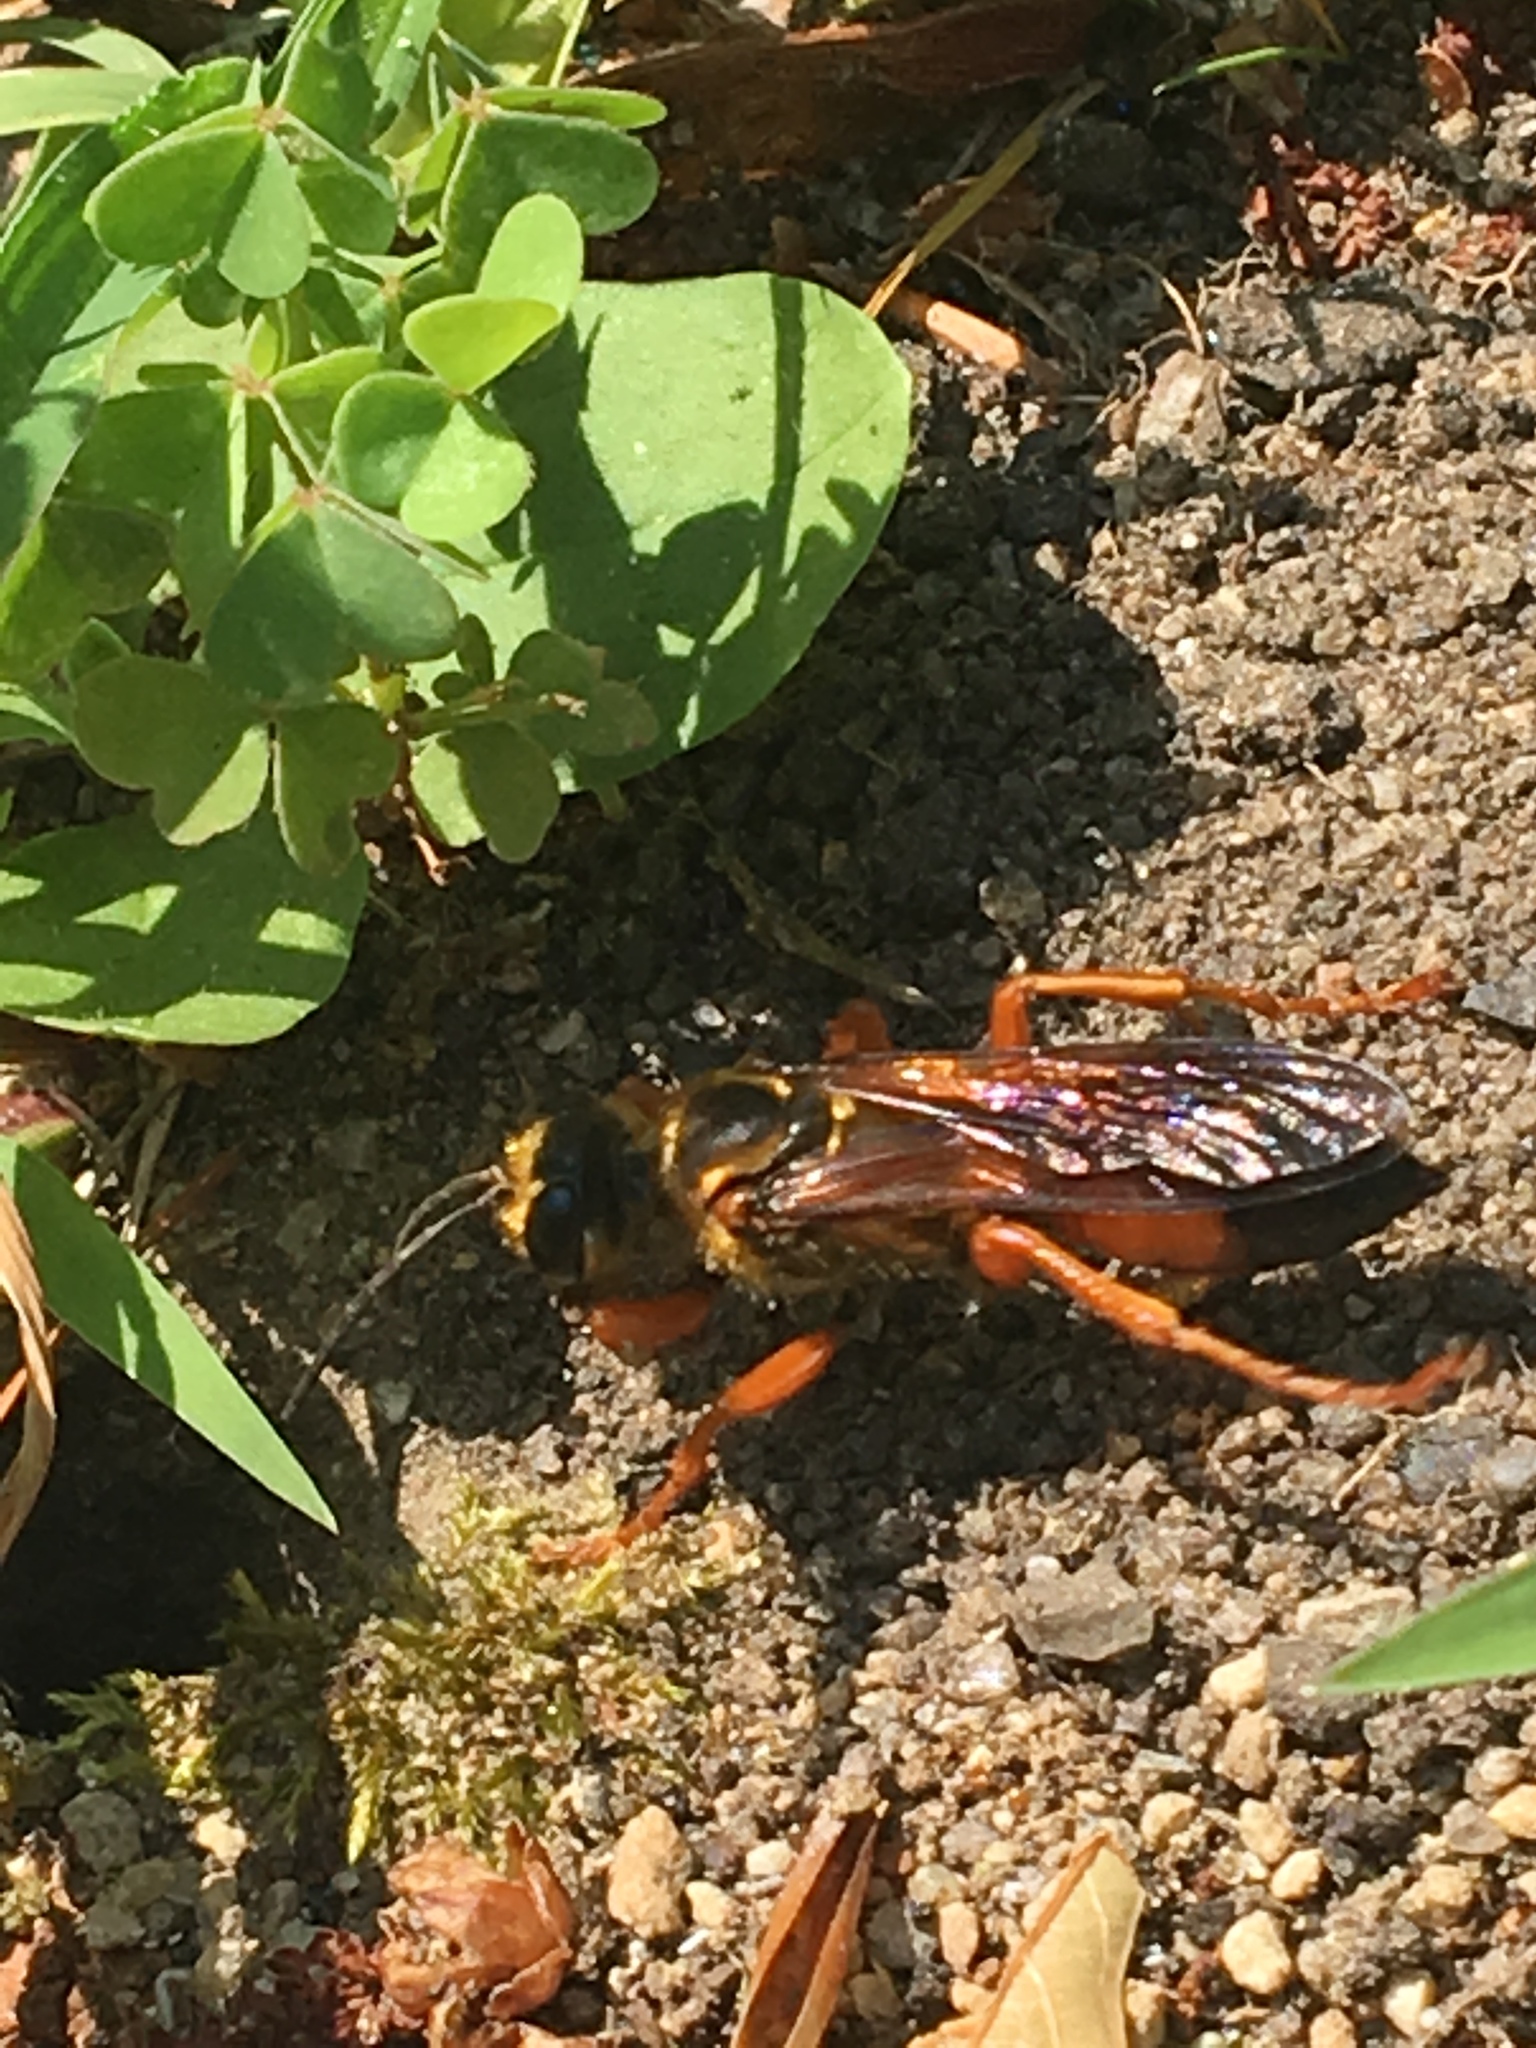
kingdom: Animalia
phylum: Arthropoda
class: Insecta
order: Hymenoptera
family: Sphecidae
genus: Sphex
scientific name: Sphex ichneumoneus
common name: Great golden digger wasp
